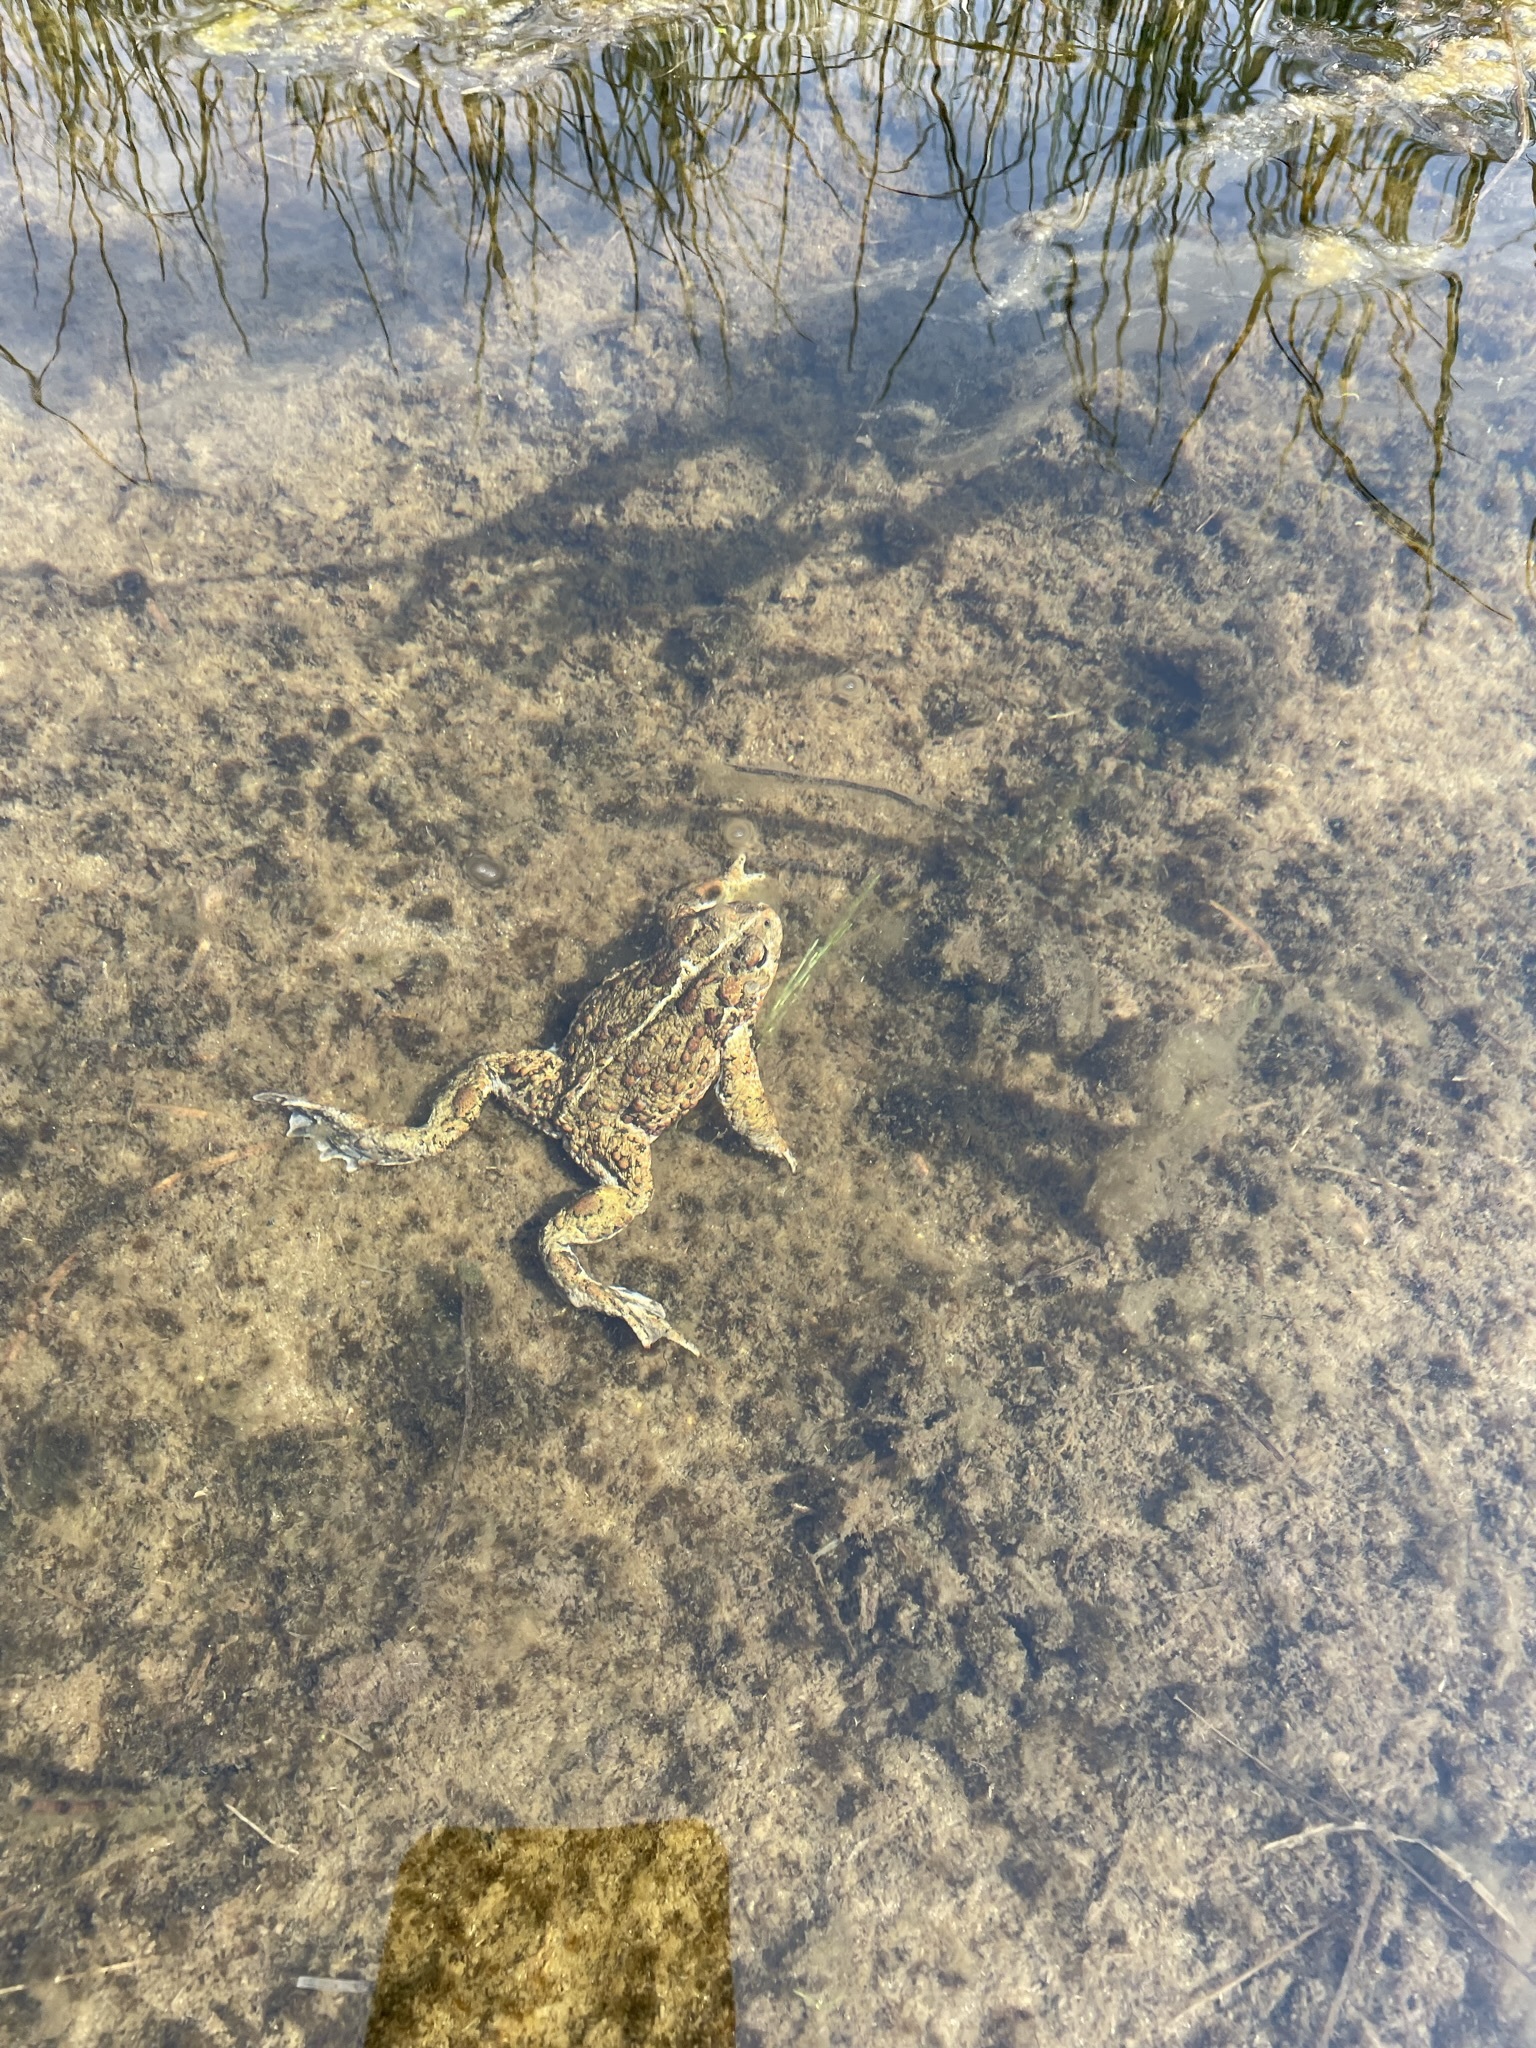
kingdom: Animalia
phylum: Chordata
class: Amphibia
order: Anura
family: Bufonidae
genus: Anaxyrus
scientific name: Anaxyrus boreas
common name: Western toad
